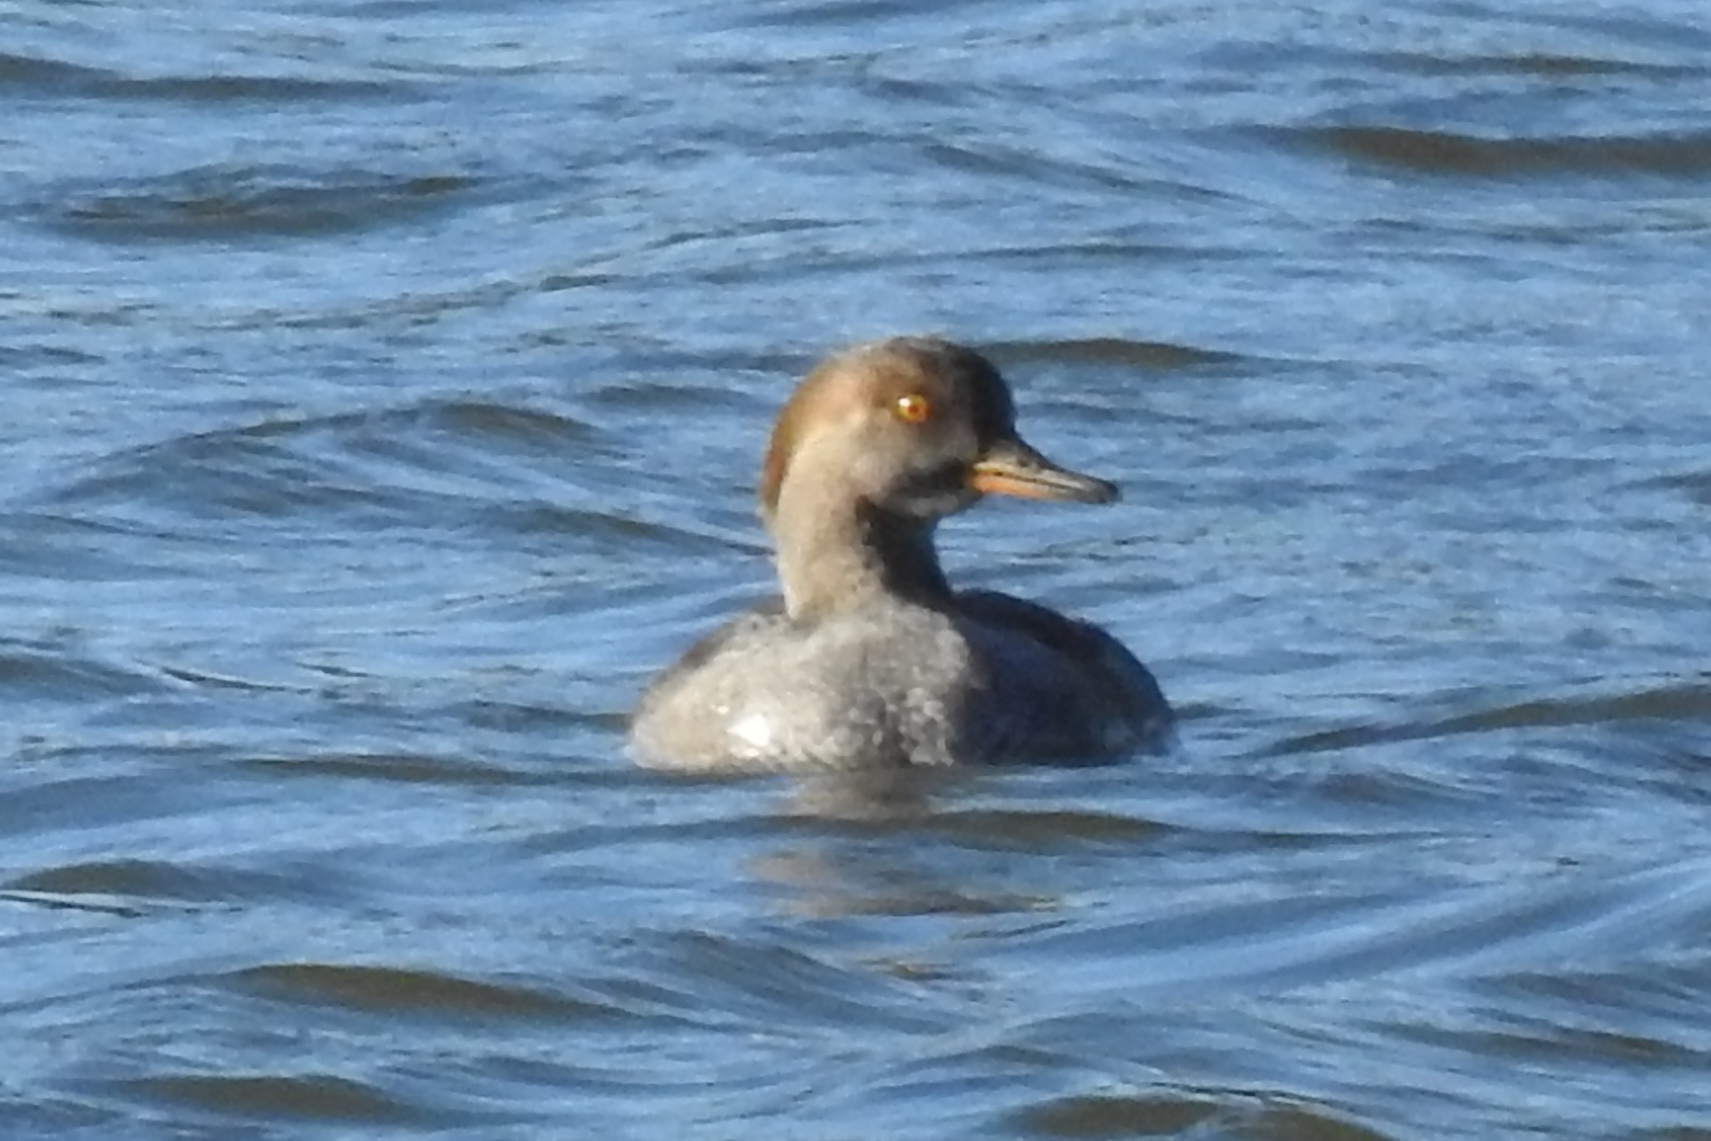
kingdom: Animalia
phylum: Chordata
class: Aves
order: Anseriformes
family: Anatidae
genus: Lophodytes
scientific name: Lophodytes cucullatus
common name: Hooded merganser
